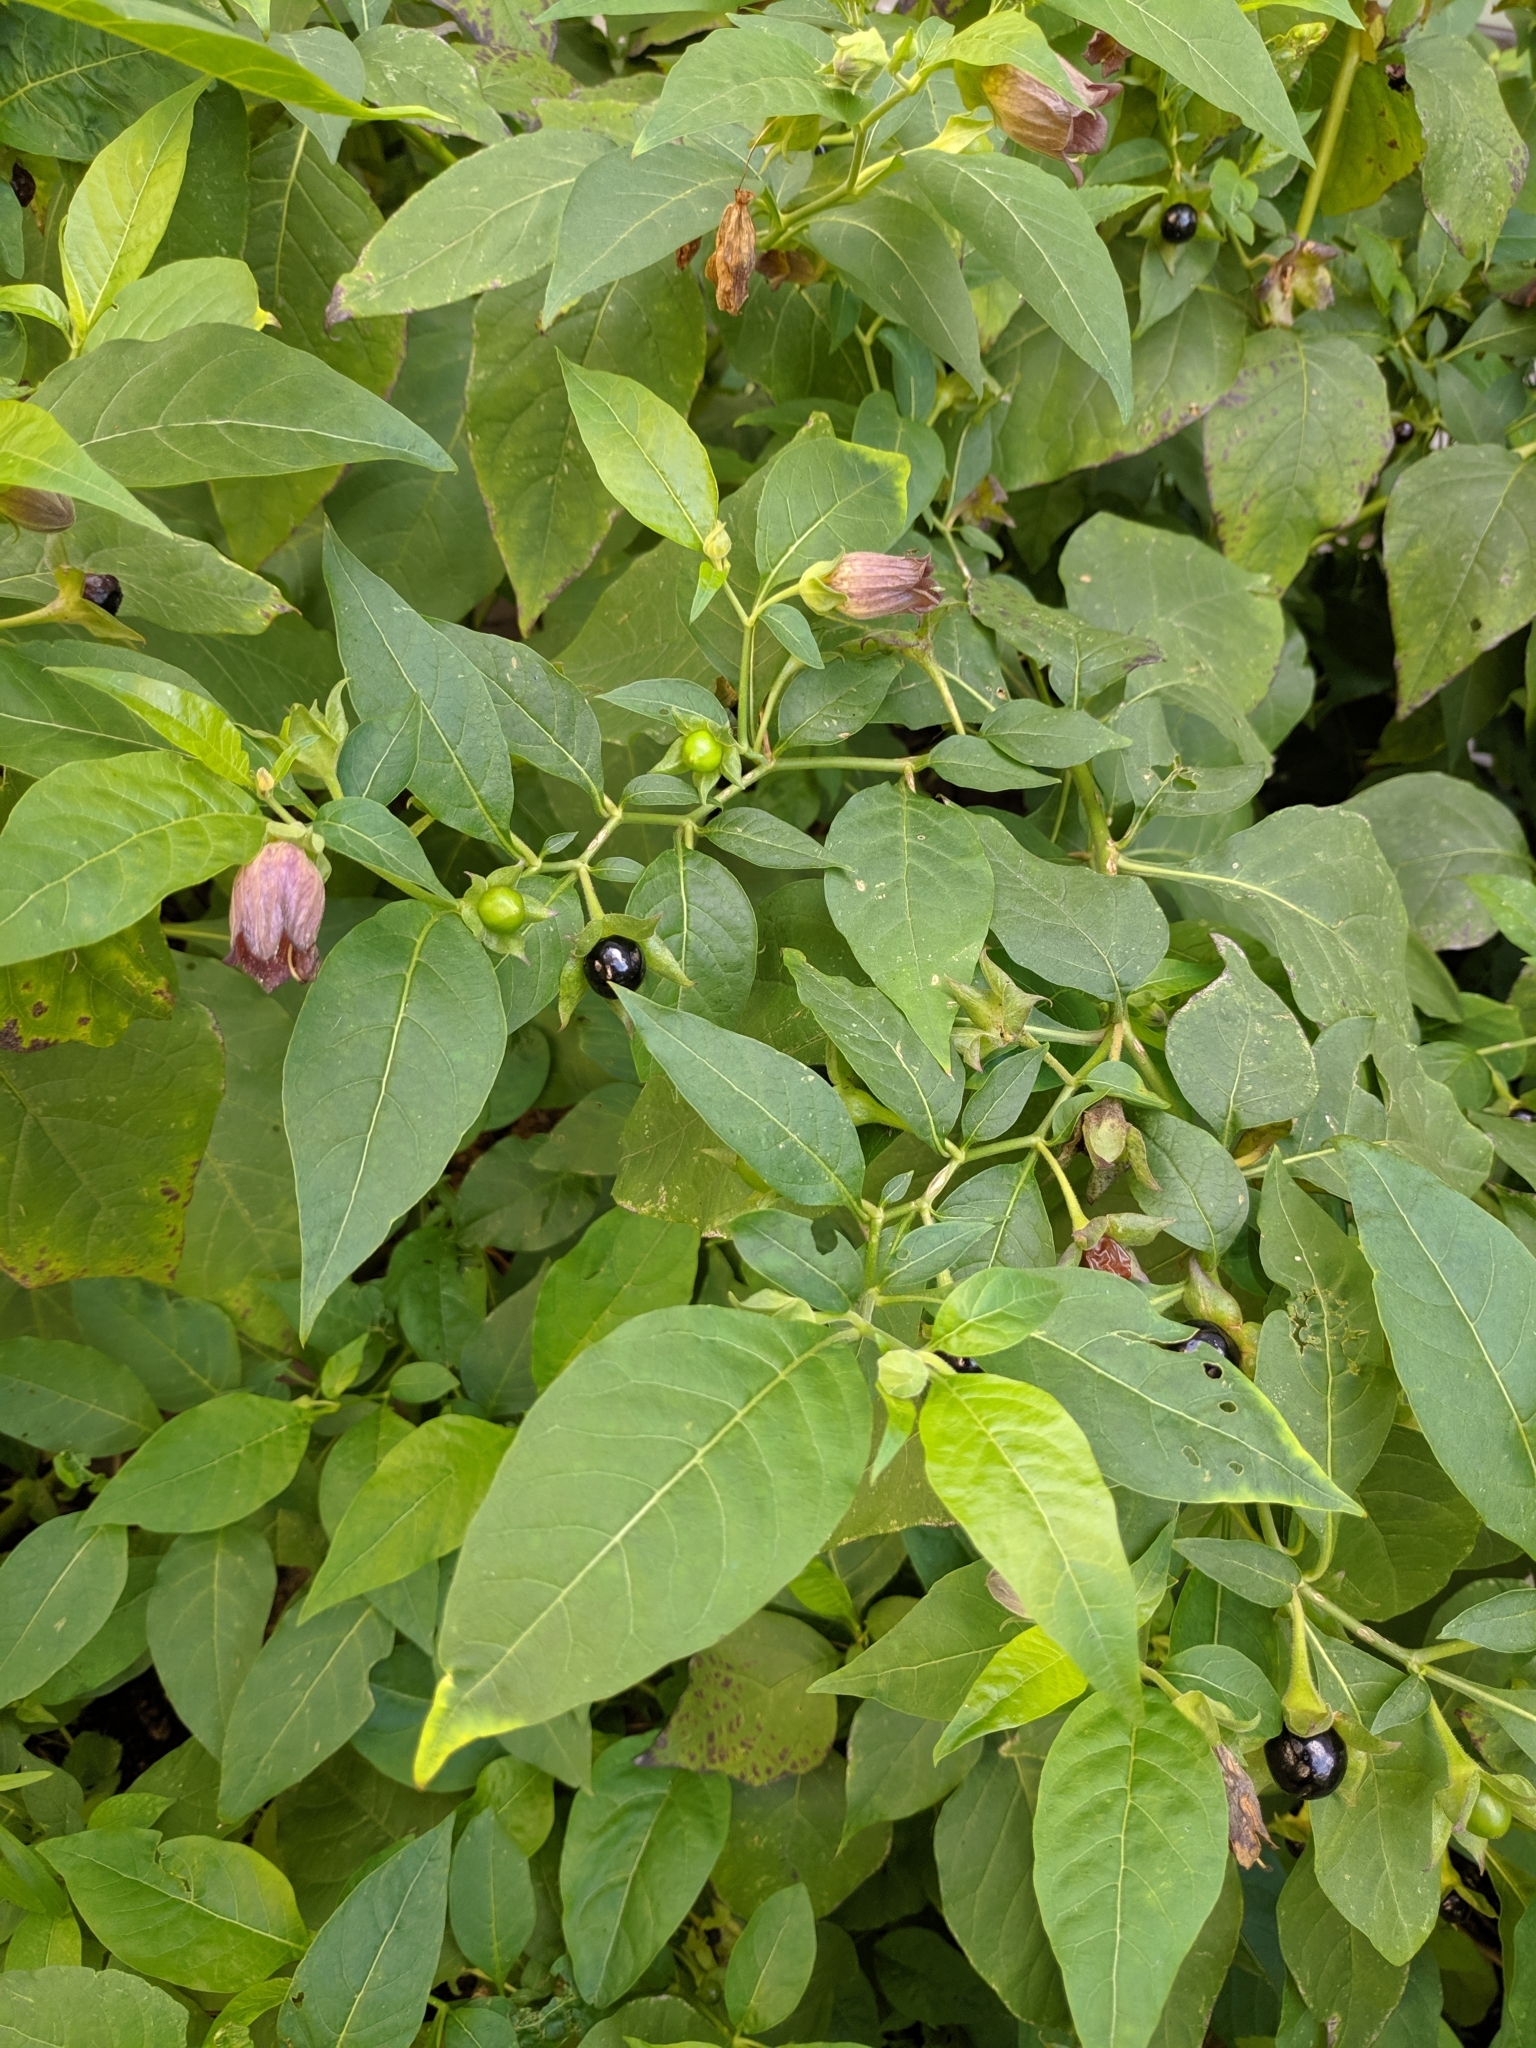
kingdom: Plantae
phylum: Tracheophyta
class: Magnoliopsida
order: Solanales
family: Solanaceae
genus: Atropa
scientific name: Atropa belladonna
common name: Deadly nightshade
